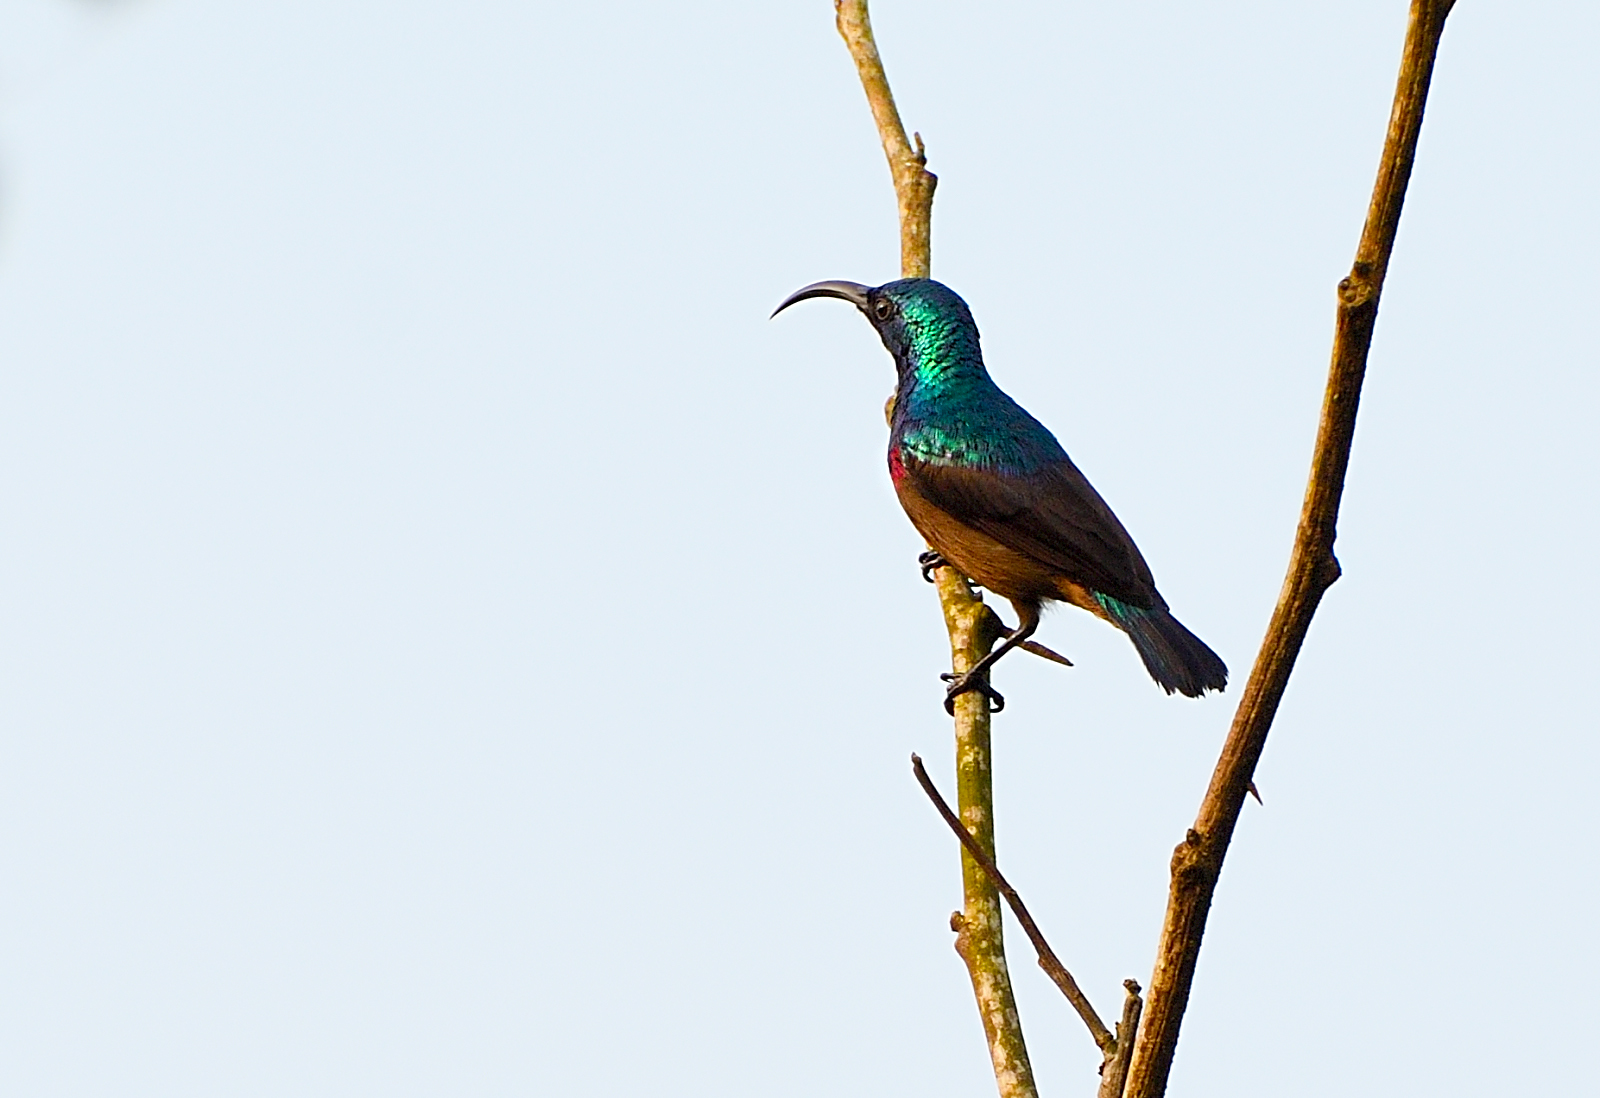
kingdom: Animalia
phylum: Chordata
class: Aves
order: Passeriformes
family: Nectariniidae
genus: Cinnyris
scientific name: Cinnyris lotenius
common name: Loten's sunbird
